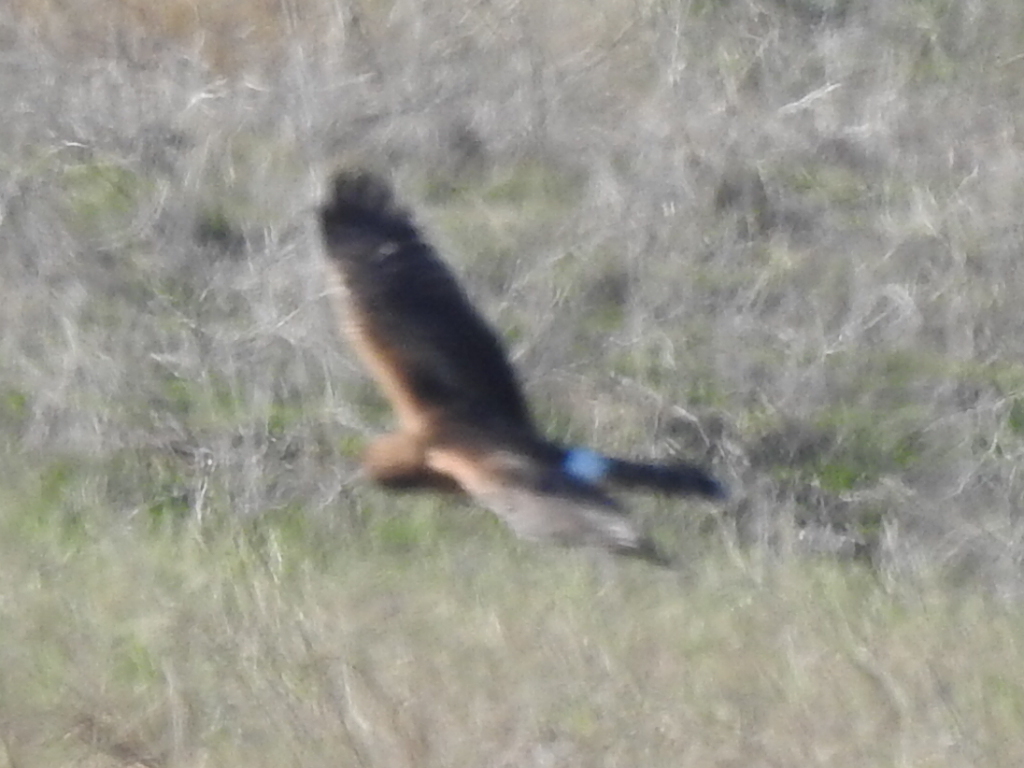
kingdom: Animalia
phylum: Chordata
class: Aves
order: Accipitriformes
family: Accipitridae
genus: Circus
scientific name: Circus cyaneus
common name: Hen harrier
